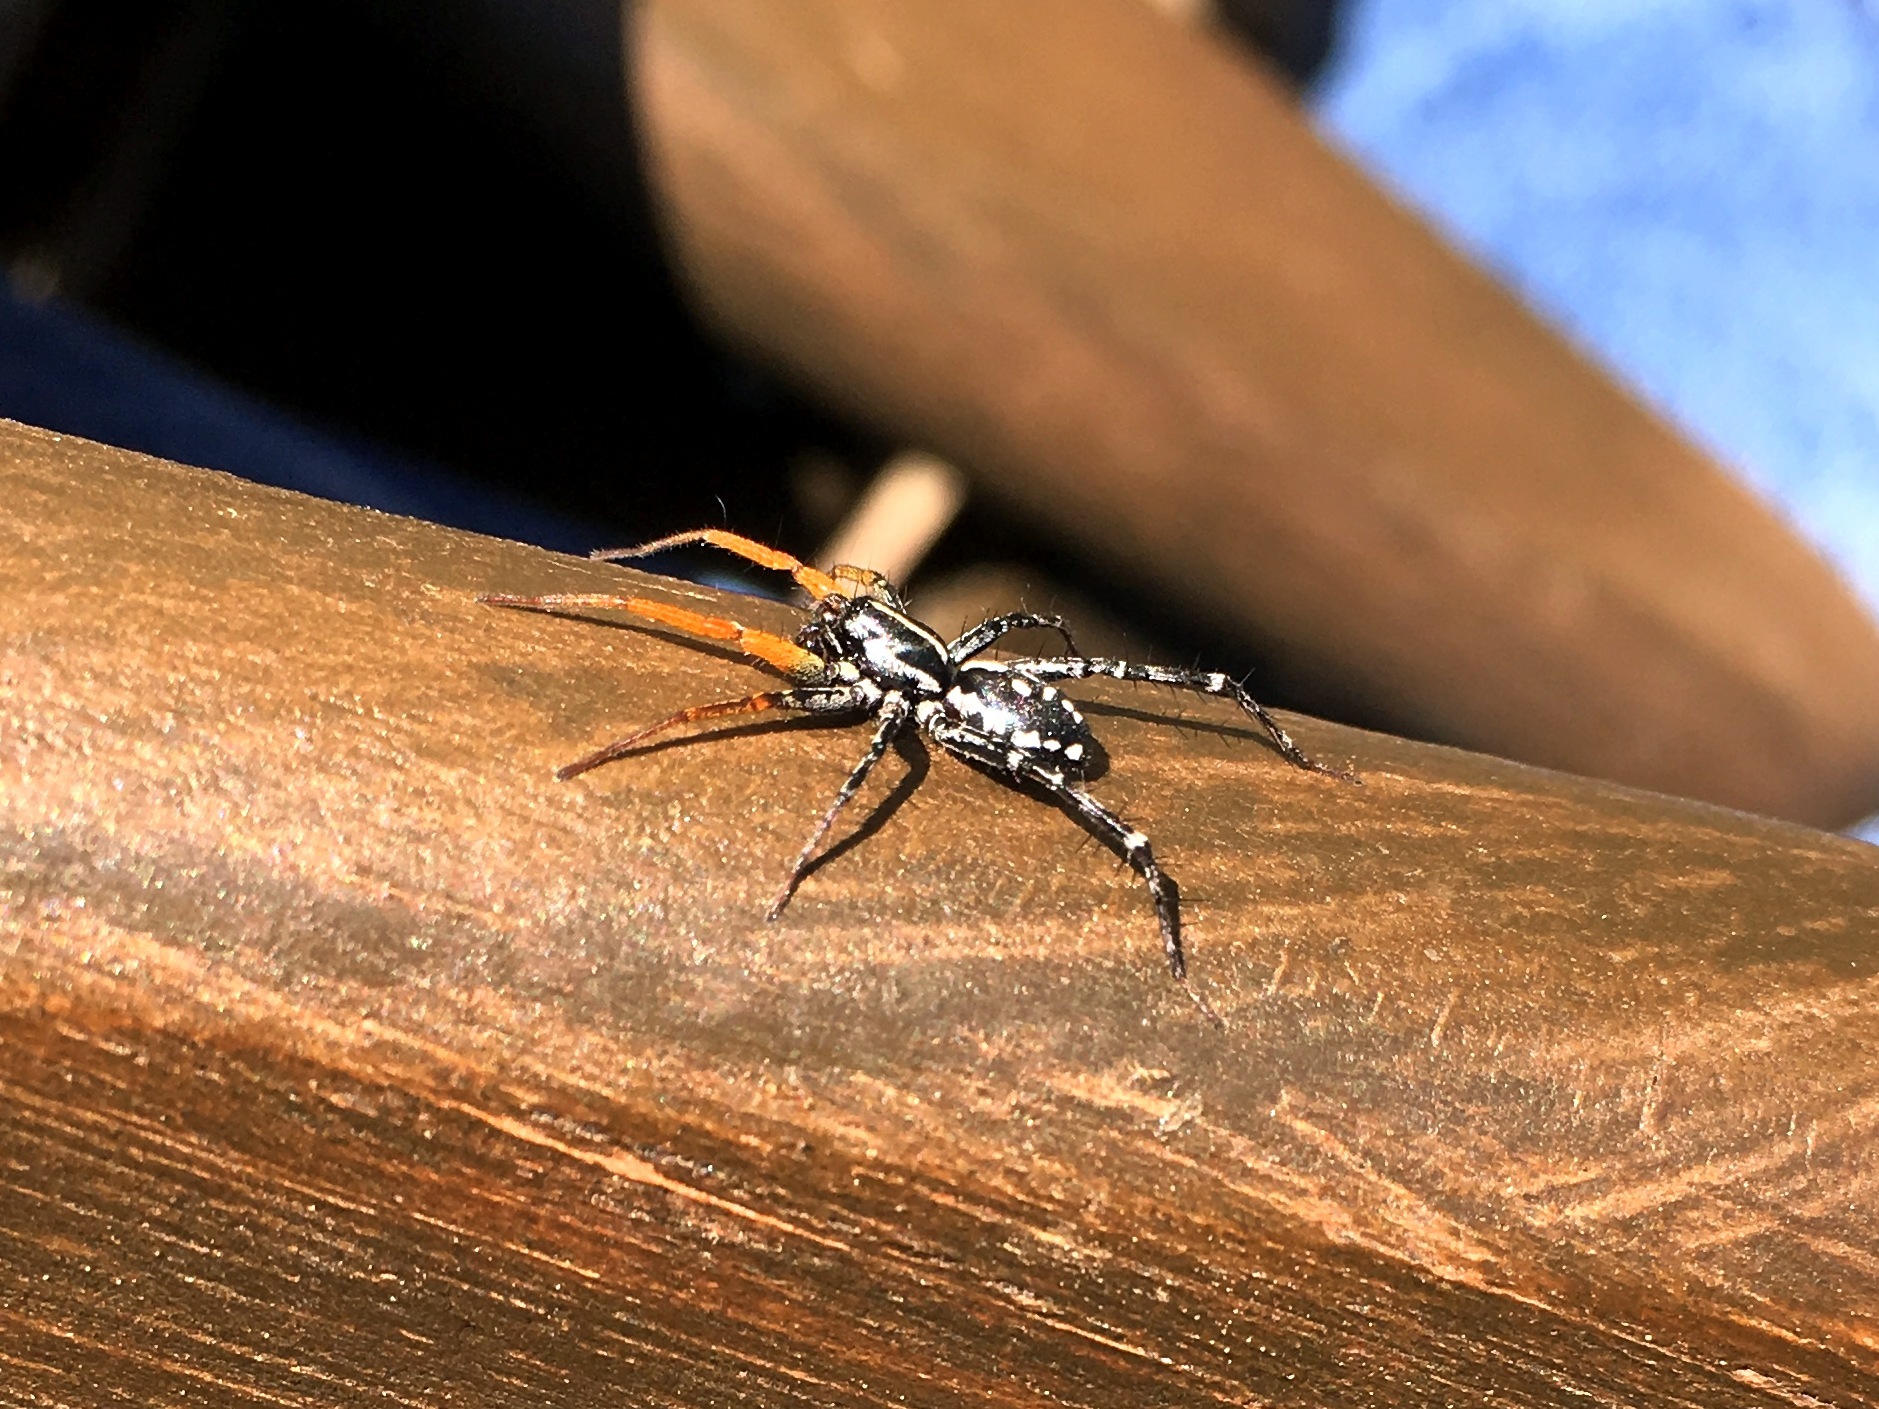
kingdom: Animalia
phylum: Arthropoda
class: Arachnida
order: Araneae
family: Corinnidae
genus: Nyssus
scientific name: Nyssus coloripes
